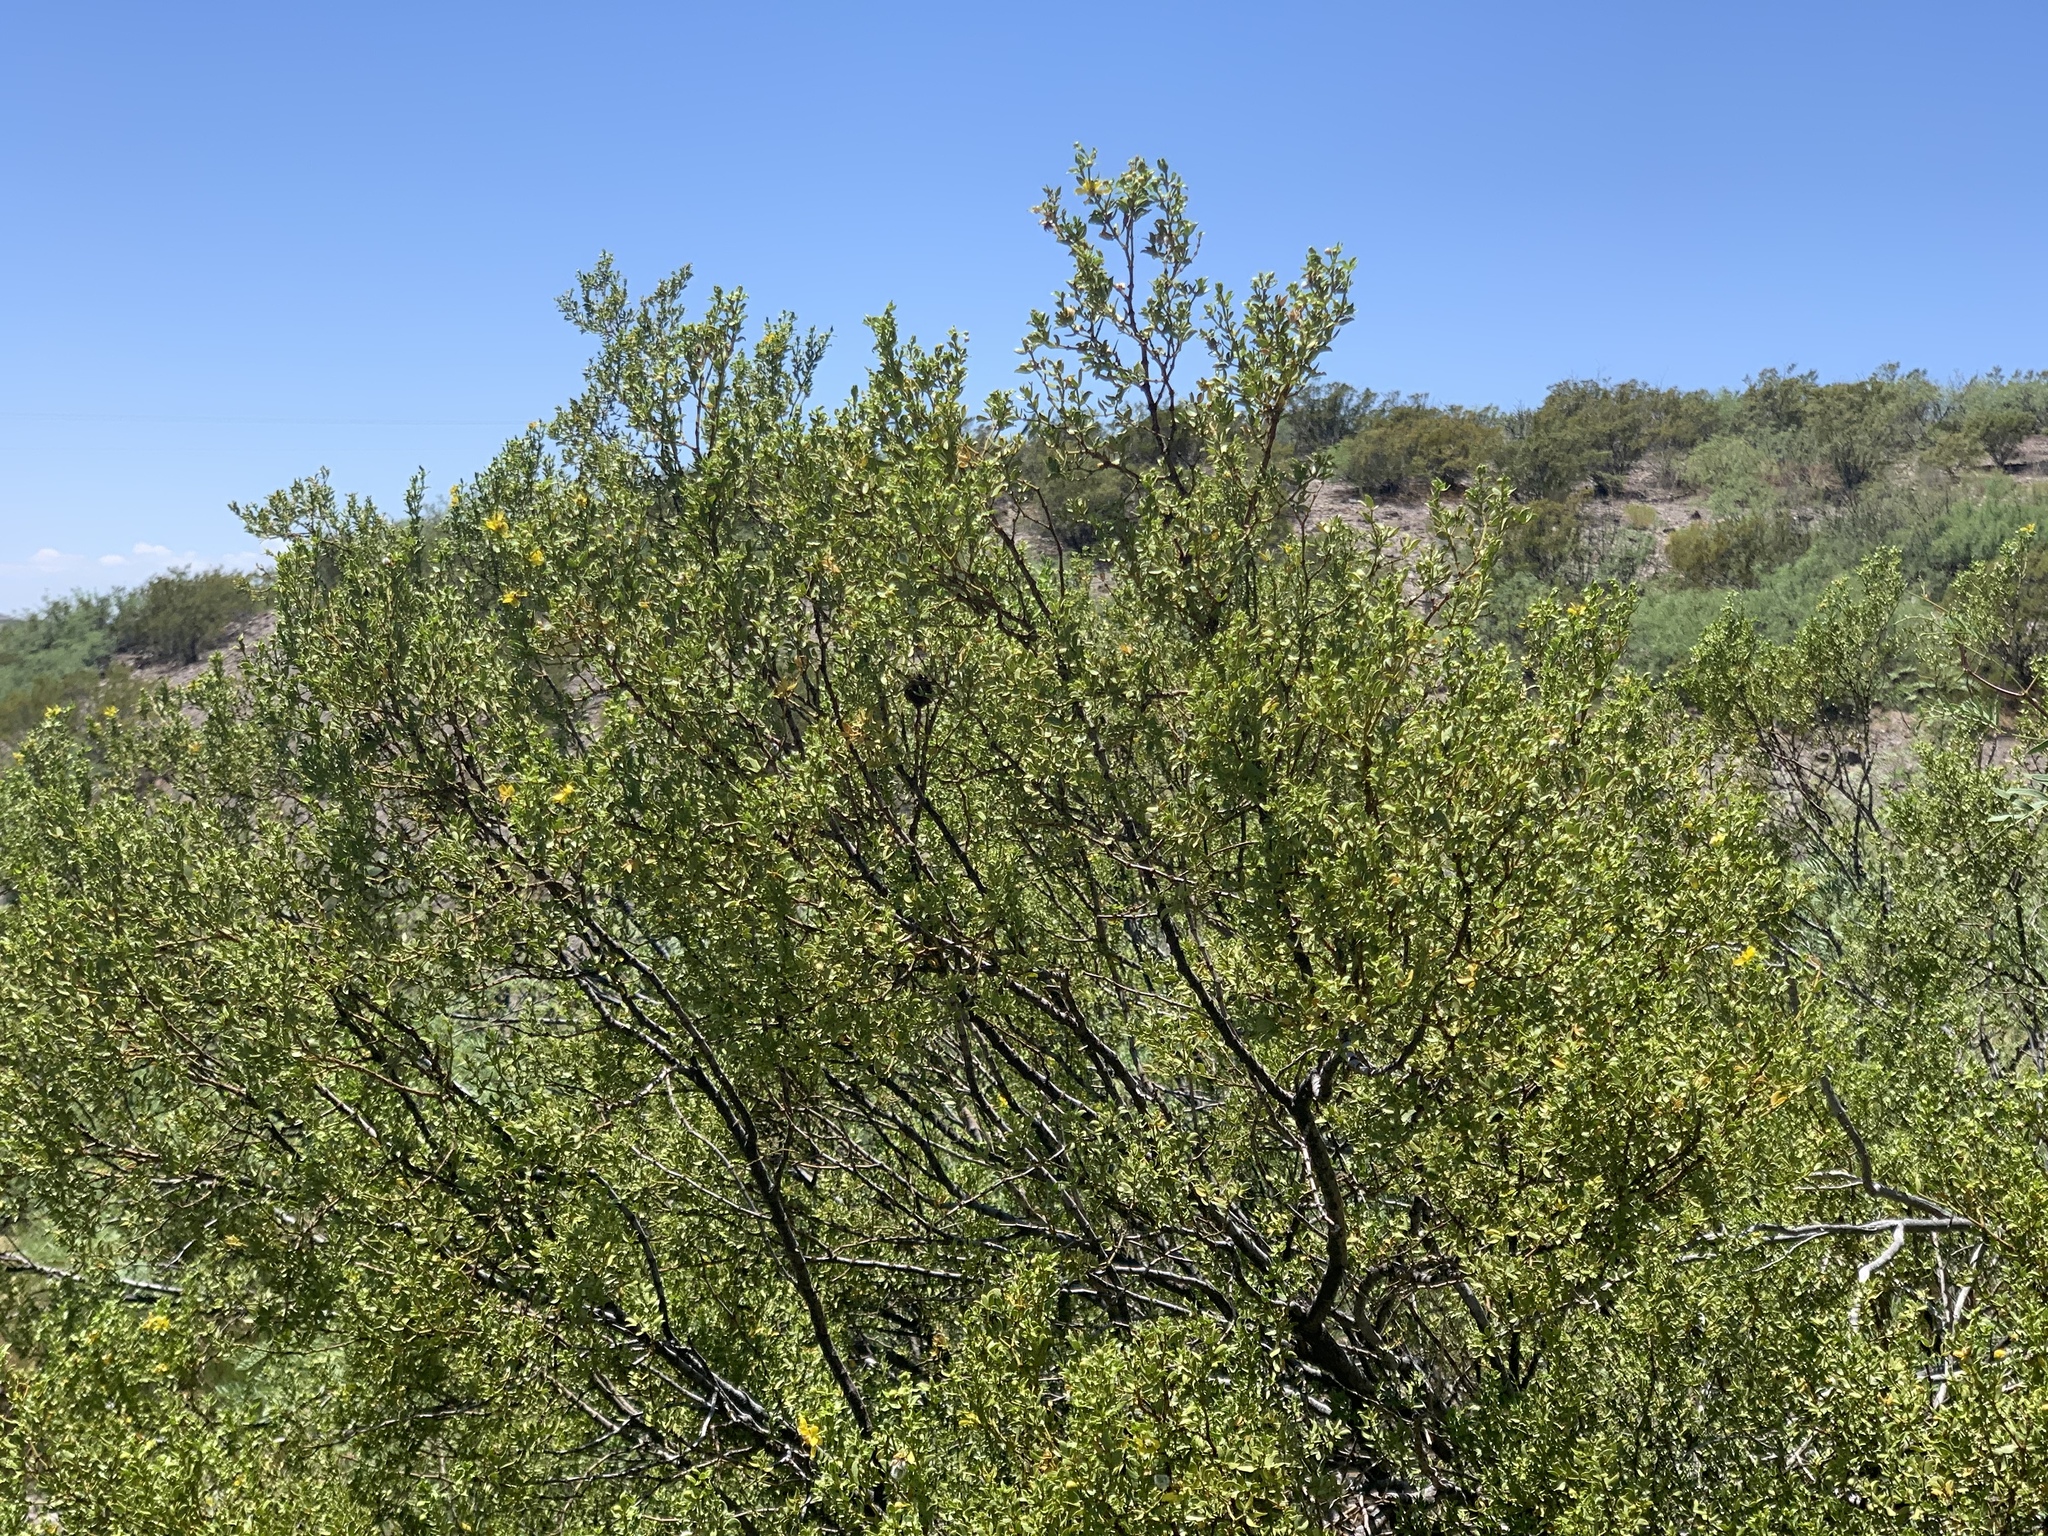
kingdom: Plantae
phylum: Tracheophyta
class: Magnoliopsida
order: Zygophyllales
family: Zygophyllaceae
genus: Larrea
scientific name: Larrea tridentata
